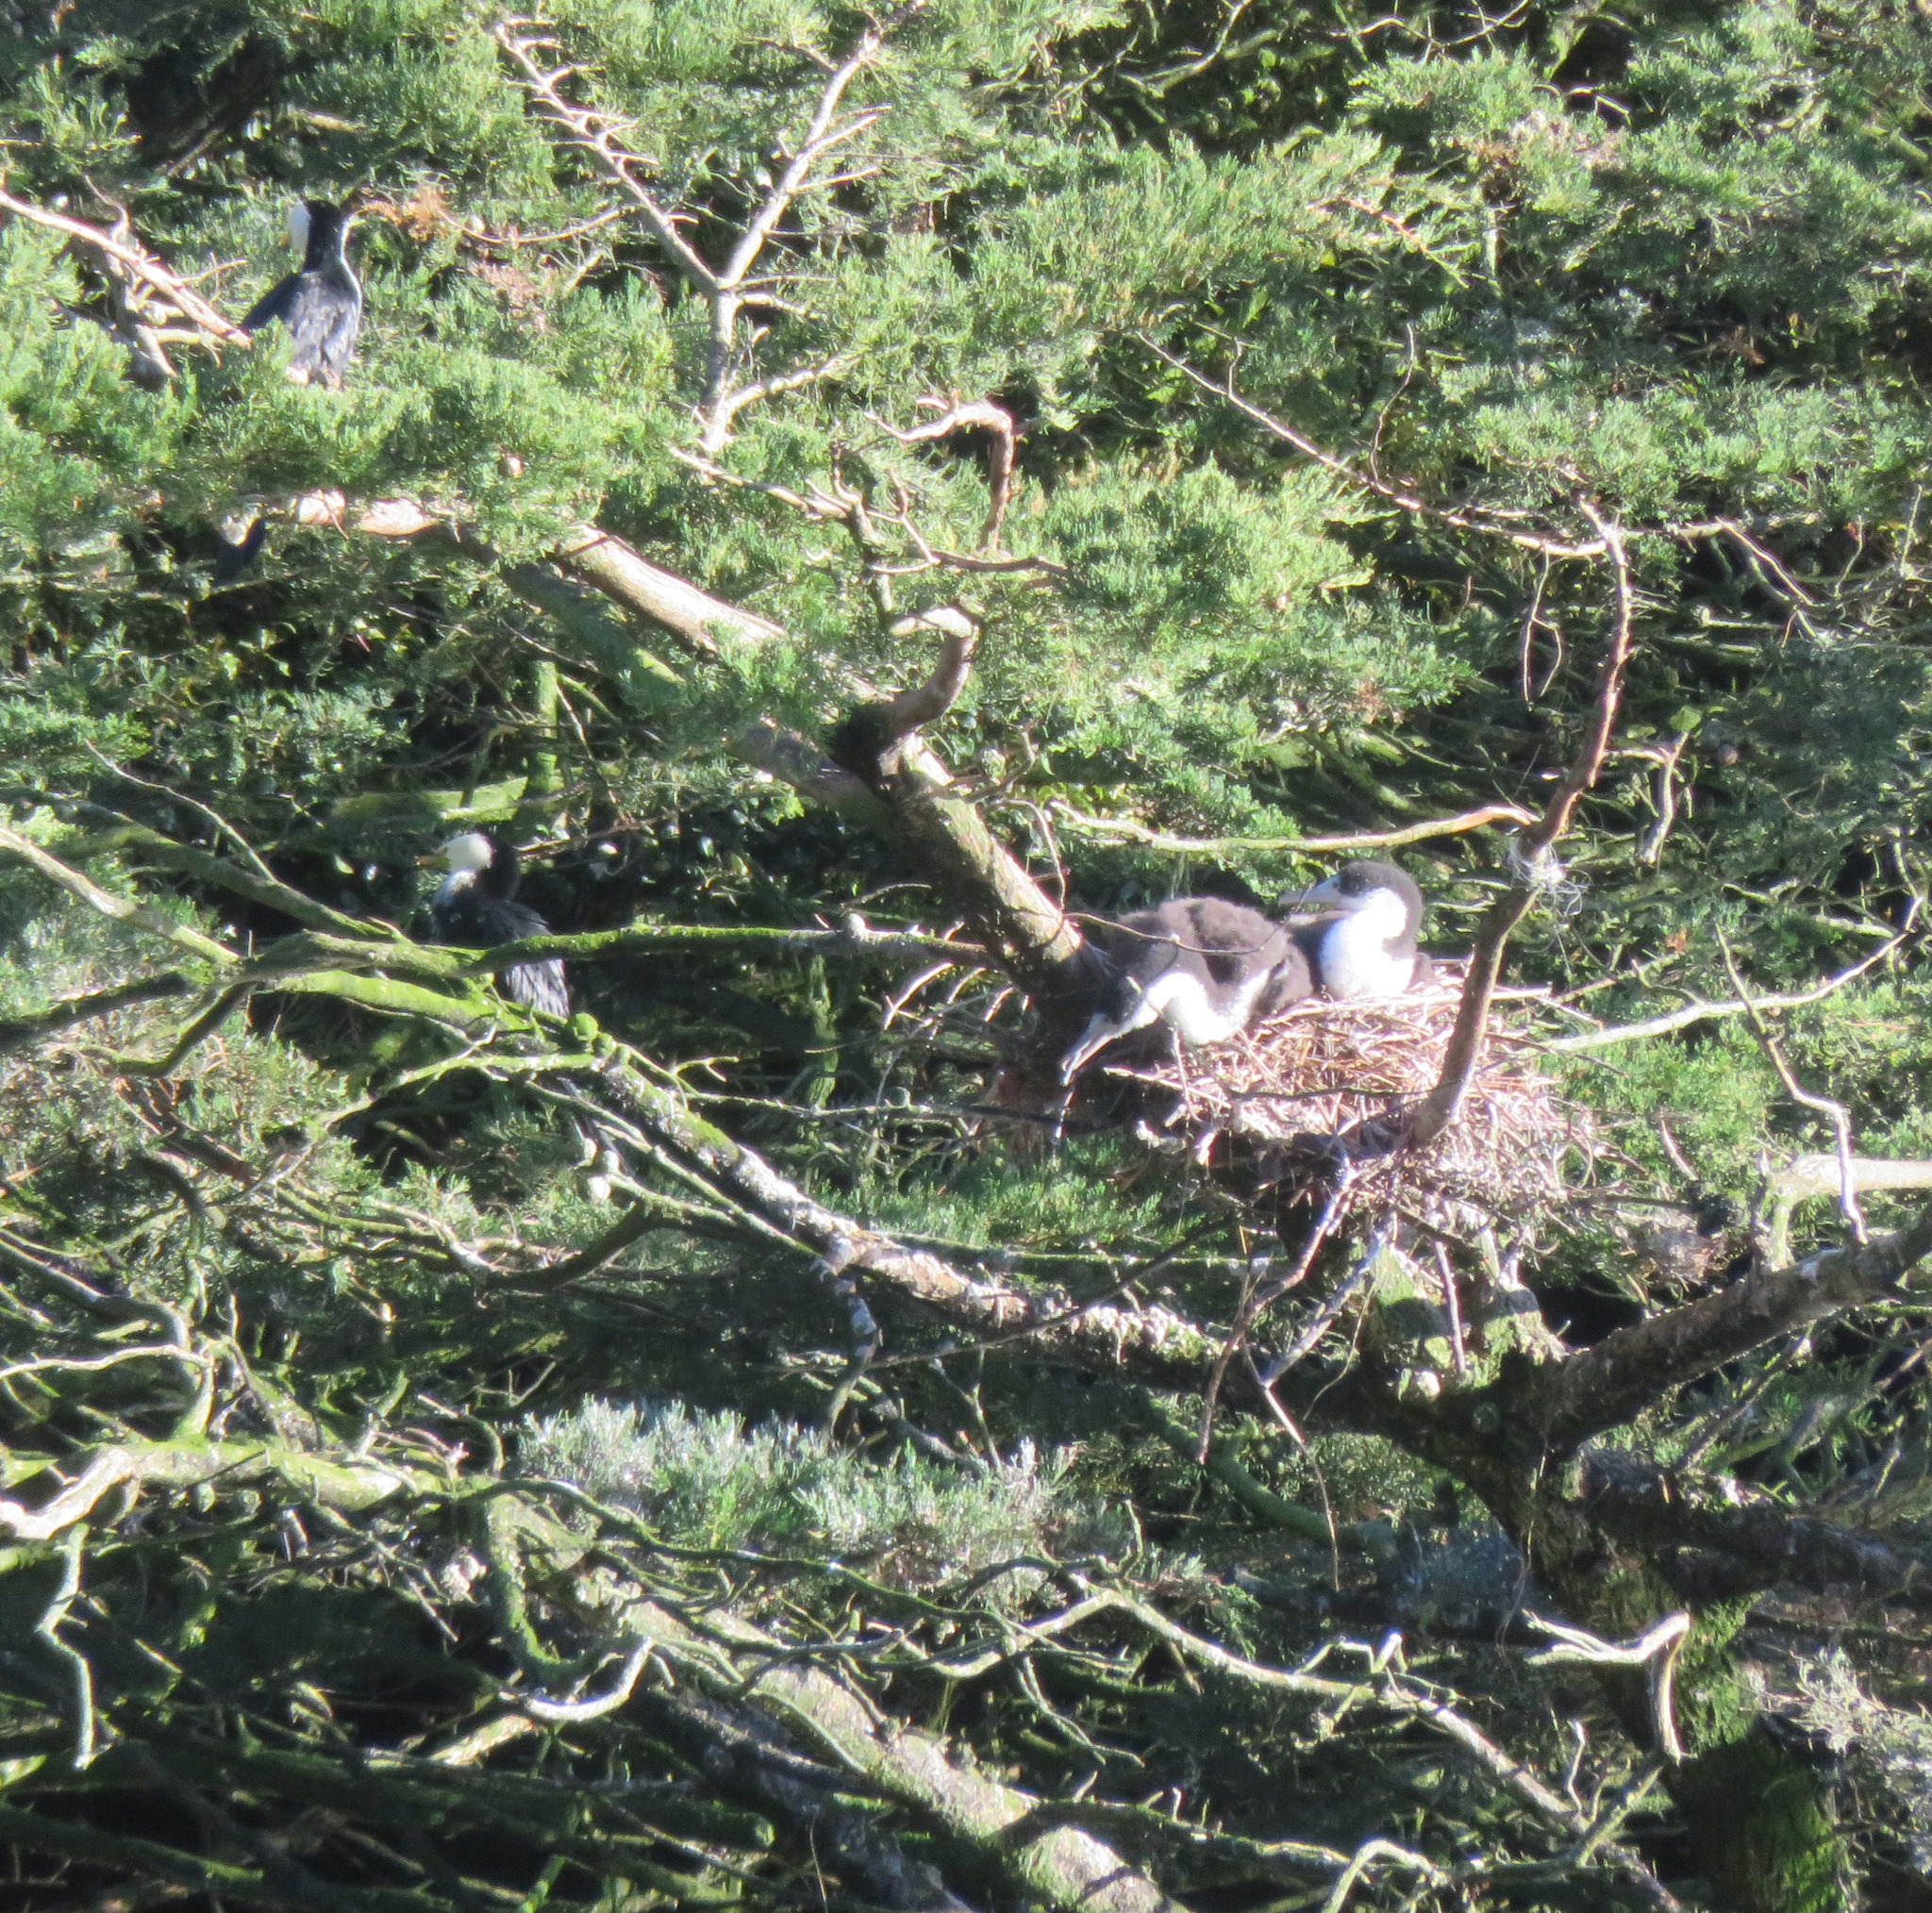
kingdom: Animalia
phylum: Chordata
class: Aves
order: Suliformes
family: Phalacrocoracidae
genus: Phalacrocorax
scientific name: Phalacrocorax varius
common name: Pied cormorant
